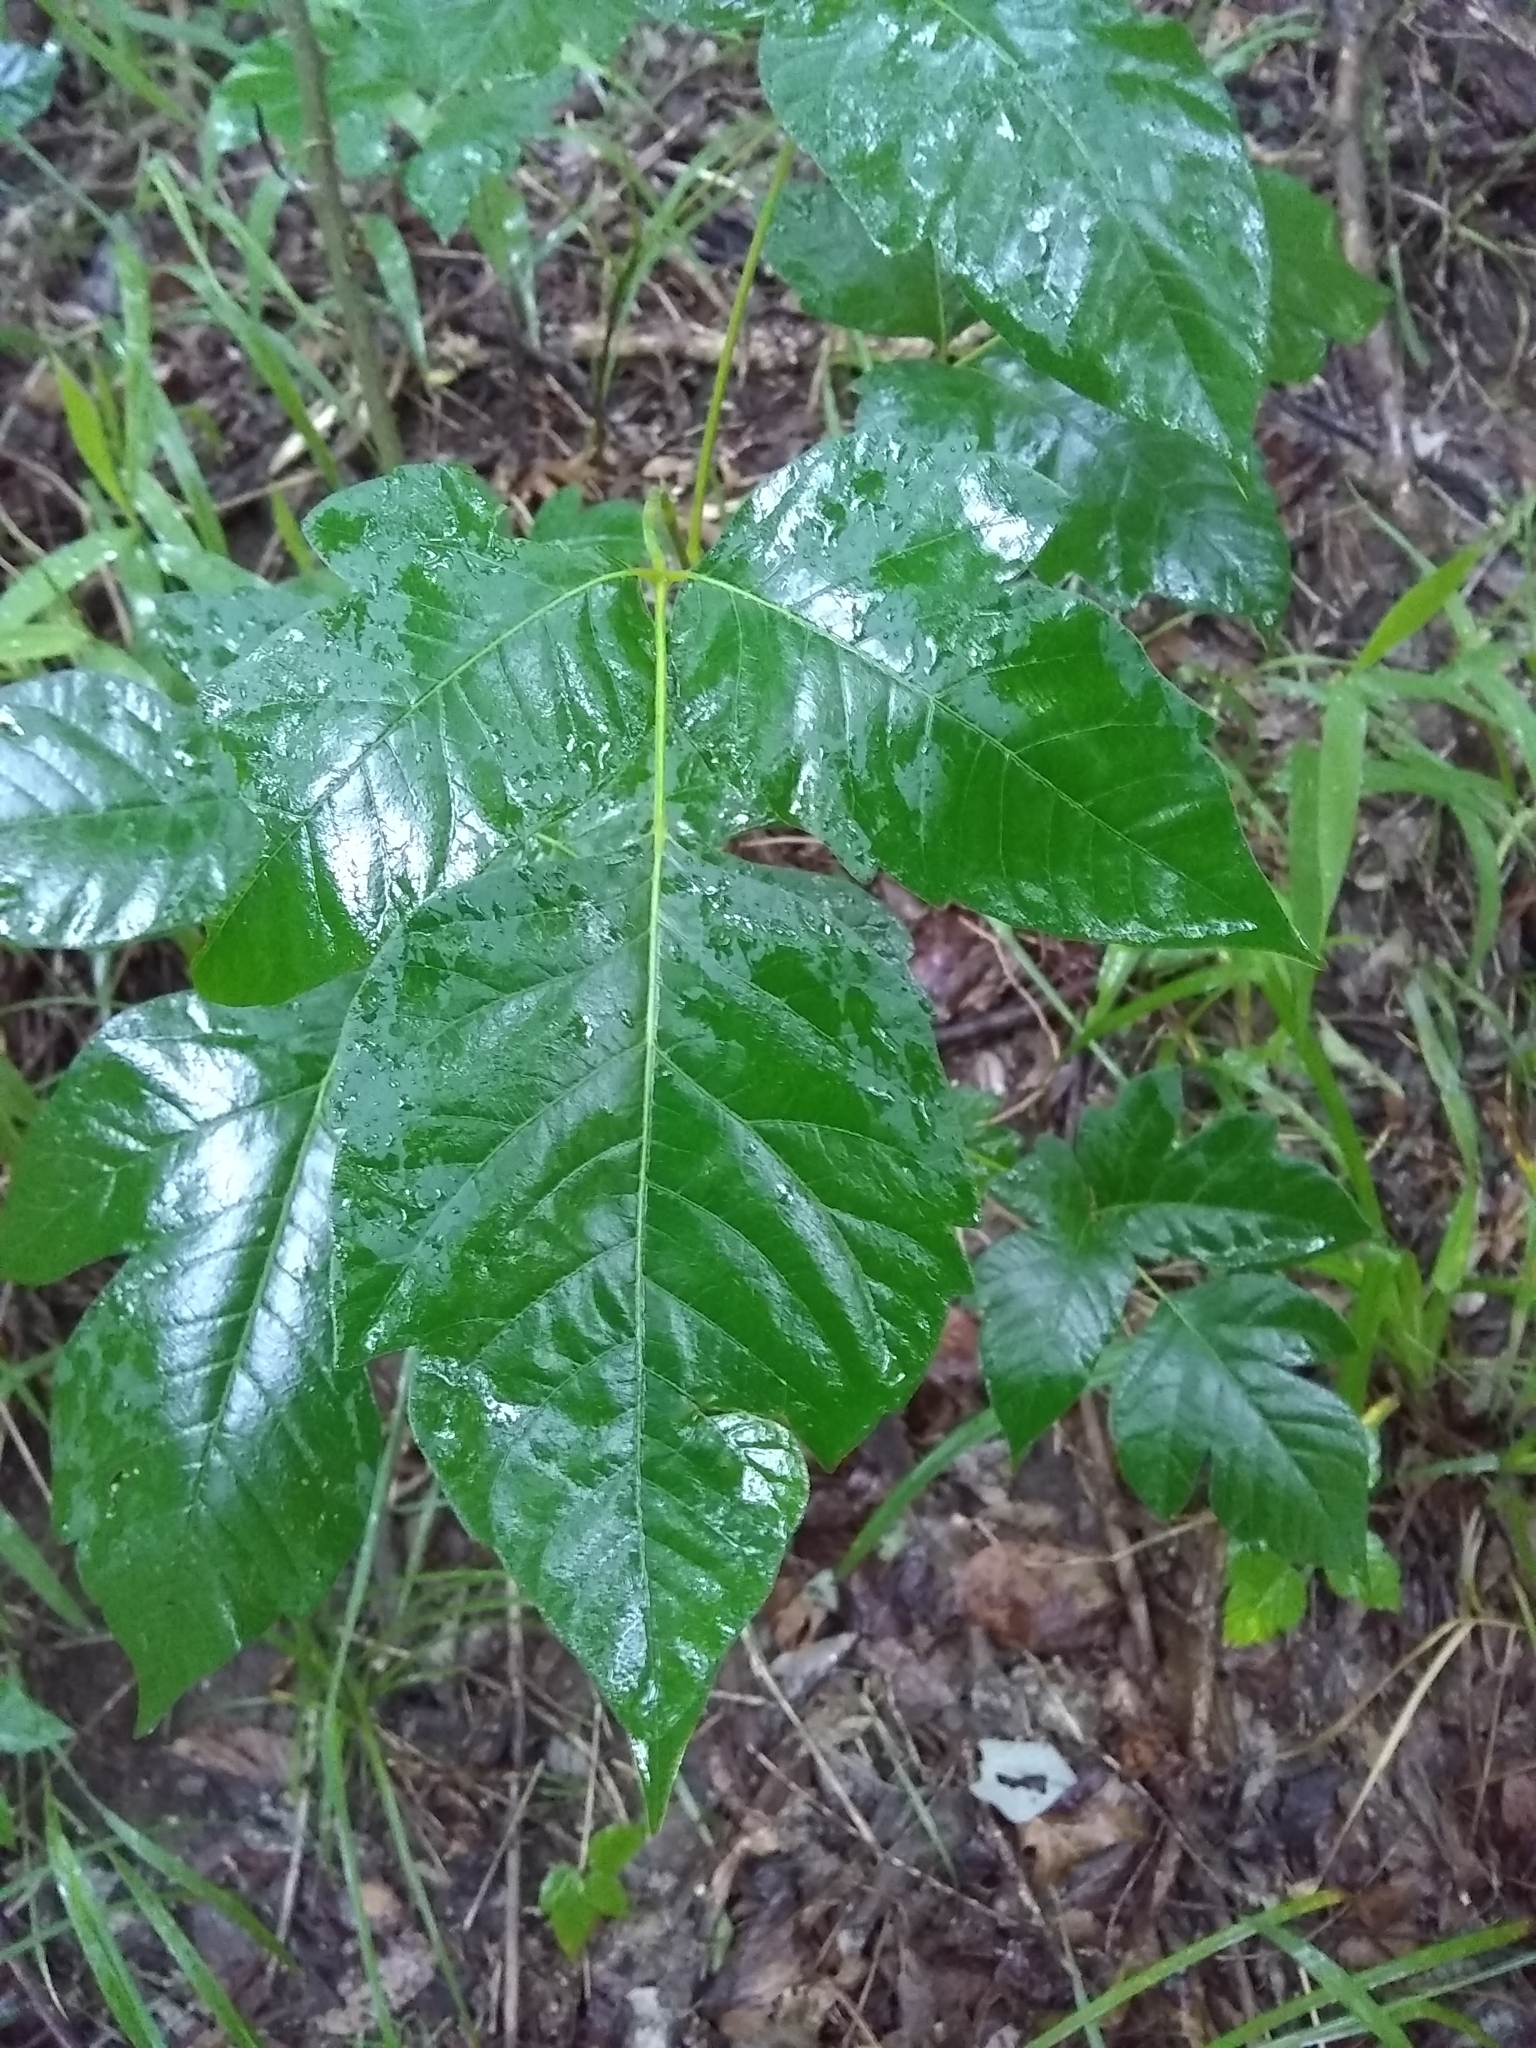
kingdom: Plantae
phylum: Tracheophyta
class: Magnoliopsida
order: Sapindales
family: Anacardiaceae
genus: Toxicodendron
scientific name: Toxicodendron radicans
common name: Poison ivy
